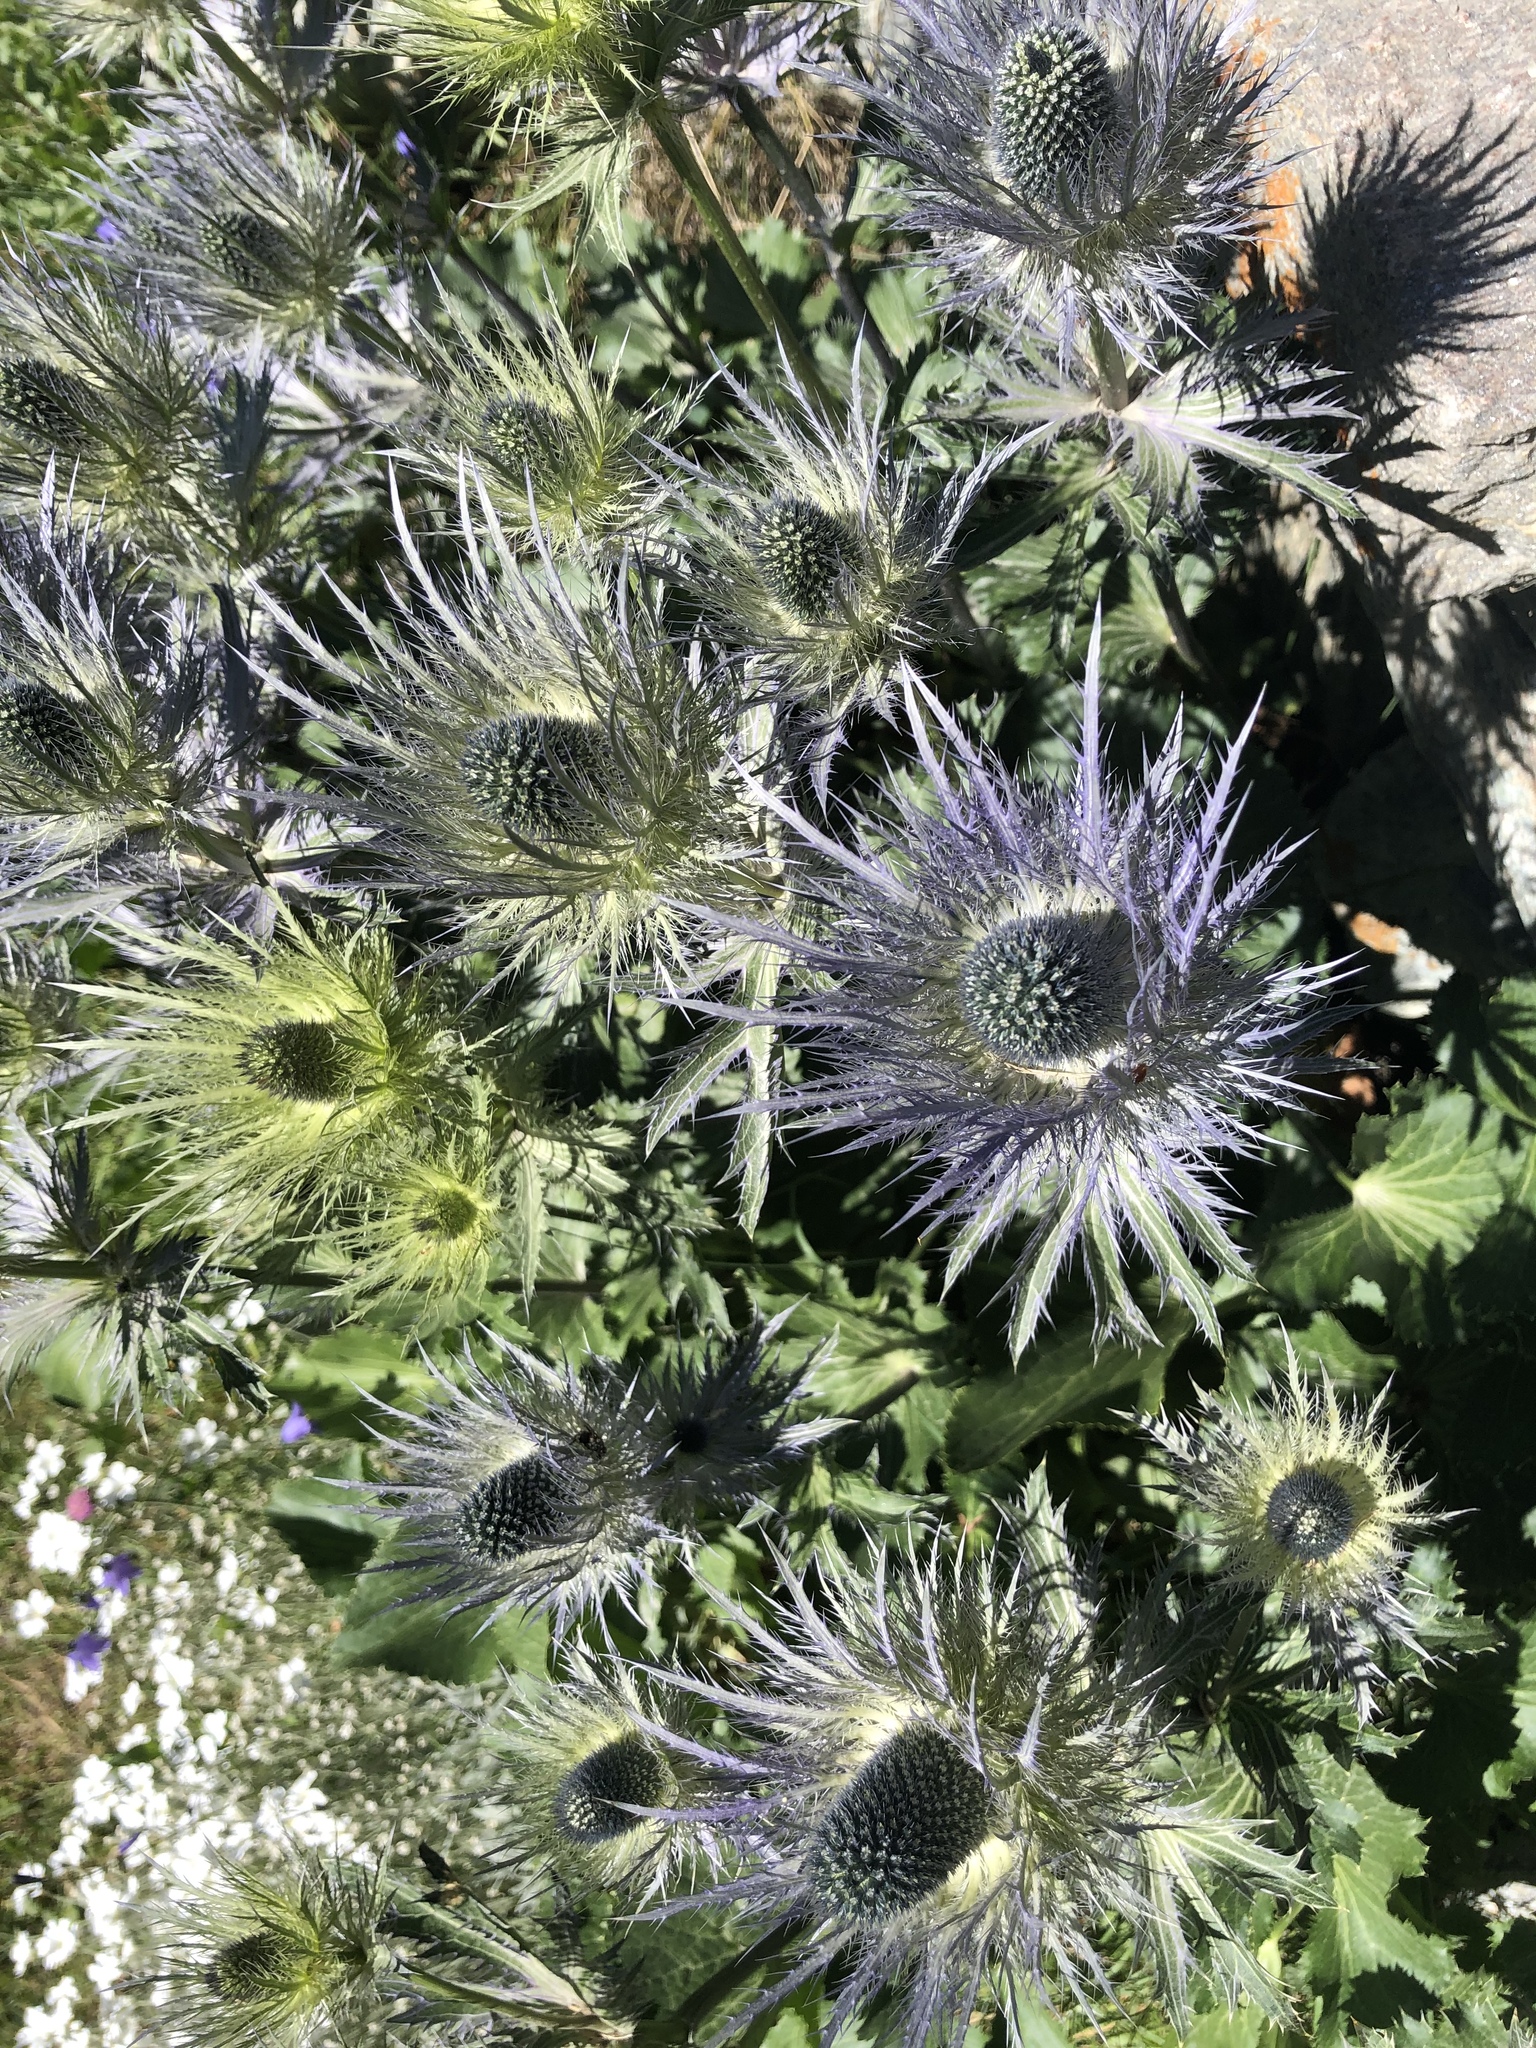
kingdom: Plantae
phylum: Tracheophyta
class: Magnoliopsida
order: Apiales
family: Apiaceae
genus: Eryngium
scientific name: Eryngium alpinum
